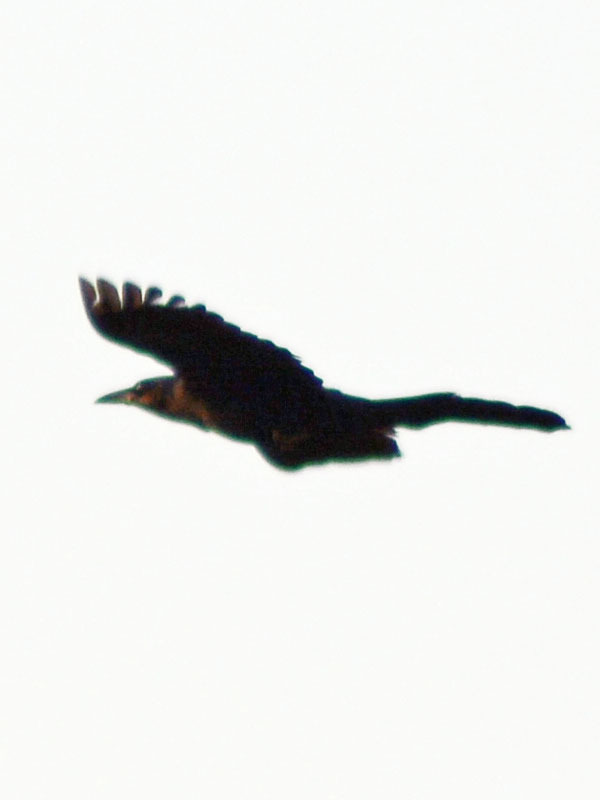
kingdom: Animalia
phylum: Chordata
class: Aves
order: Passeriformes
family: Icteridae
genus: Quiscalus
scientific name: Quiscalus mexicanus
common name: Great-tailed grackle
